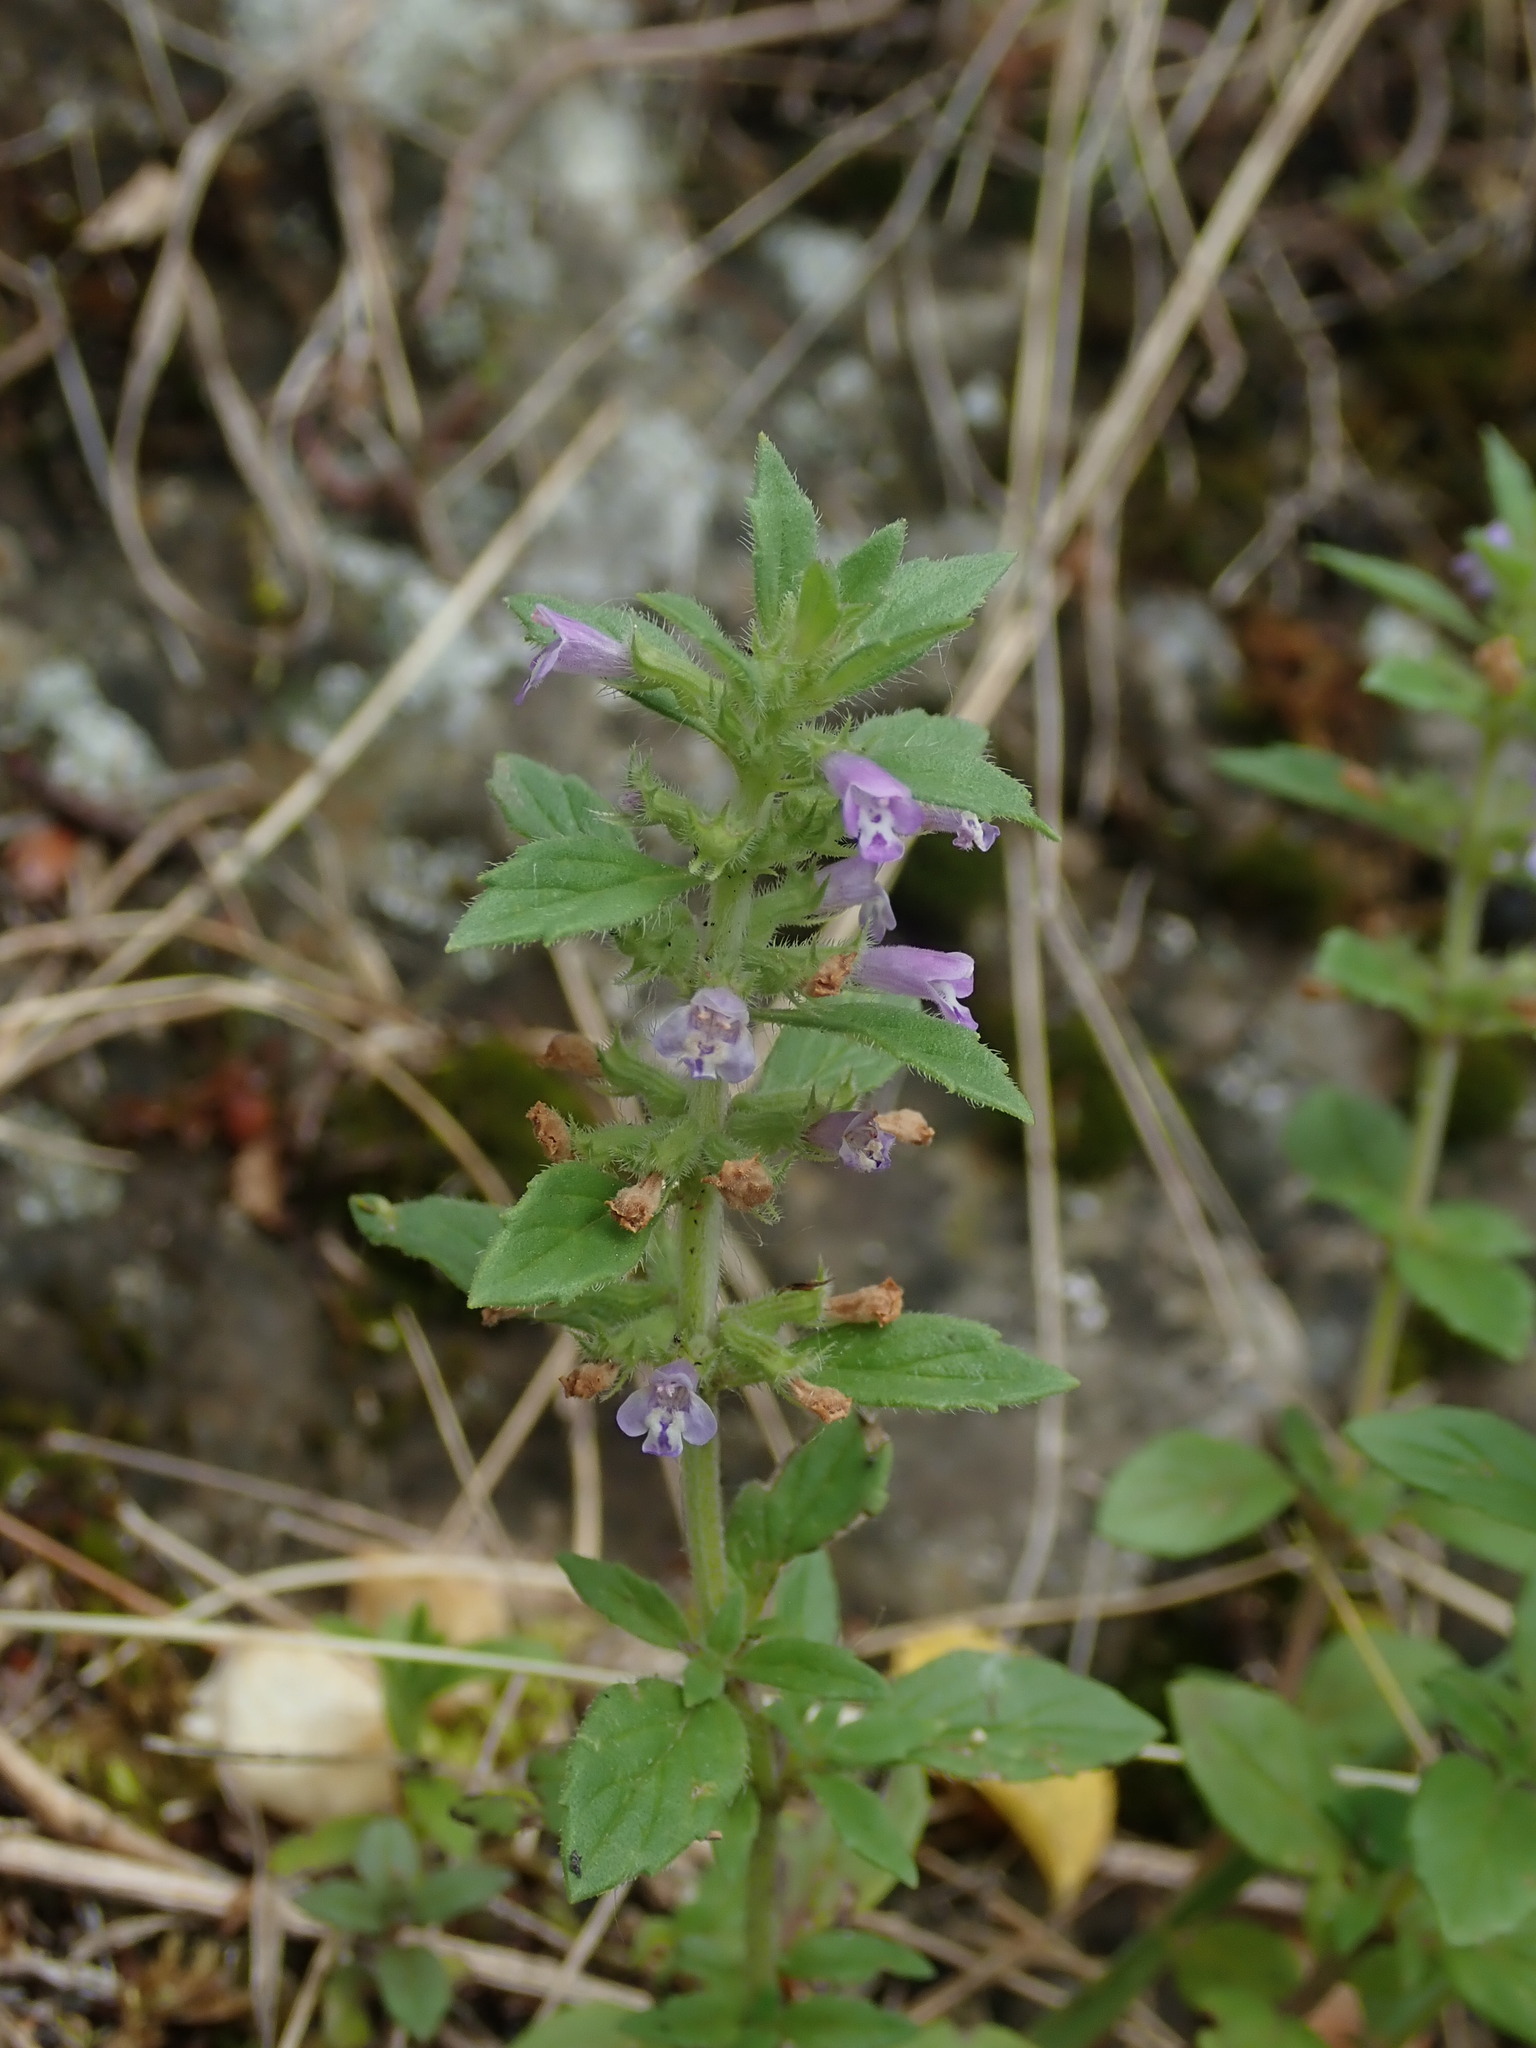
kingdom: Plantae
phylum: Tracheophyta
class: Magnoliopsida
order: Lamiales
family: Lamiaceae
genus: Clinopodium
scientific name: Clinopodium acinos
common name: Basil thyme
